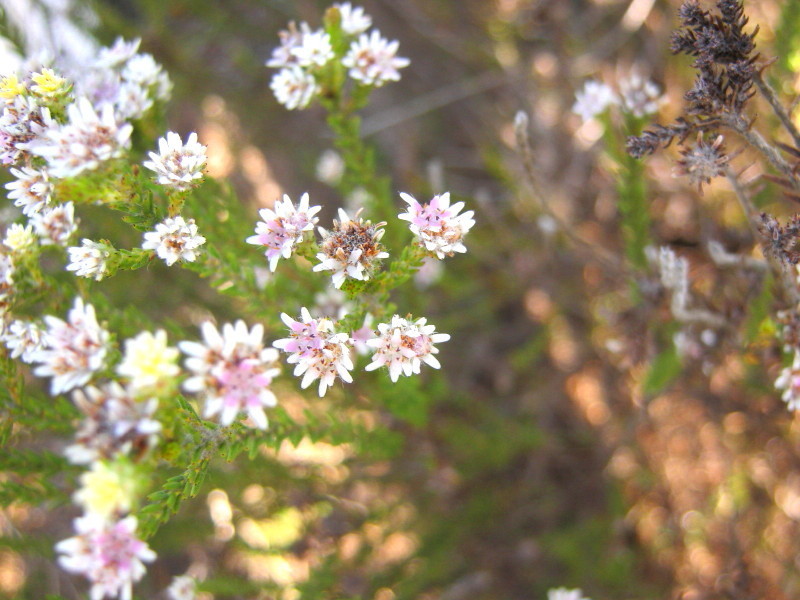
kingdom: Plantae
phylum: Tracheophyta
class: Magnoliopsida
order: Bruniales
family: Bruniaceae
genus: Staavia
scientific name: Staavia radiata
